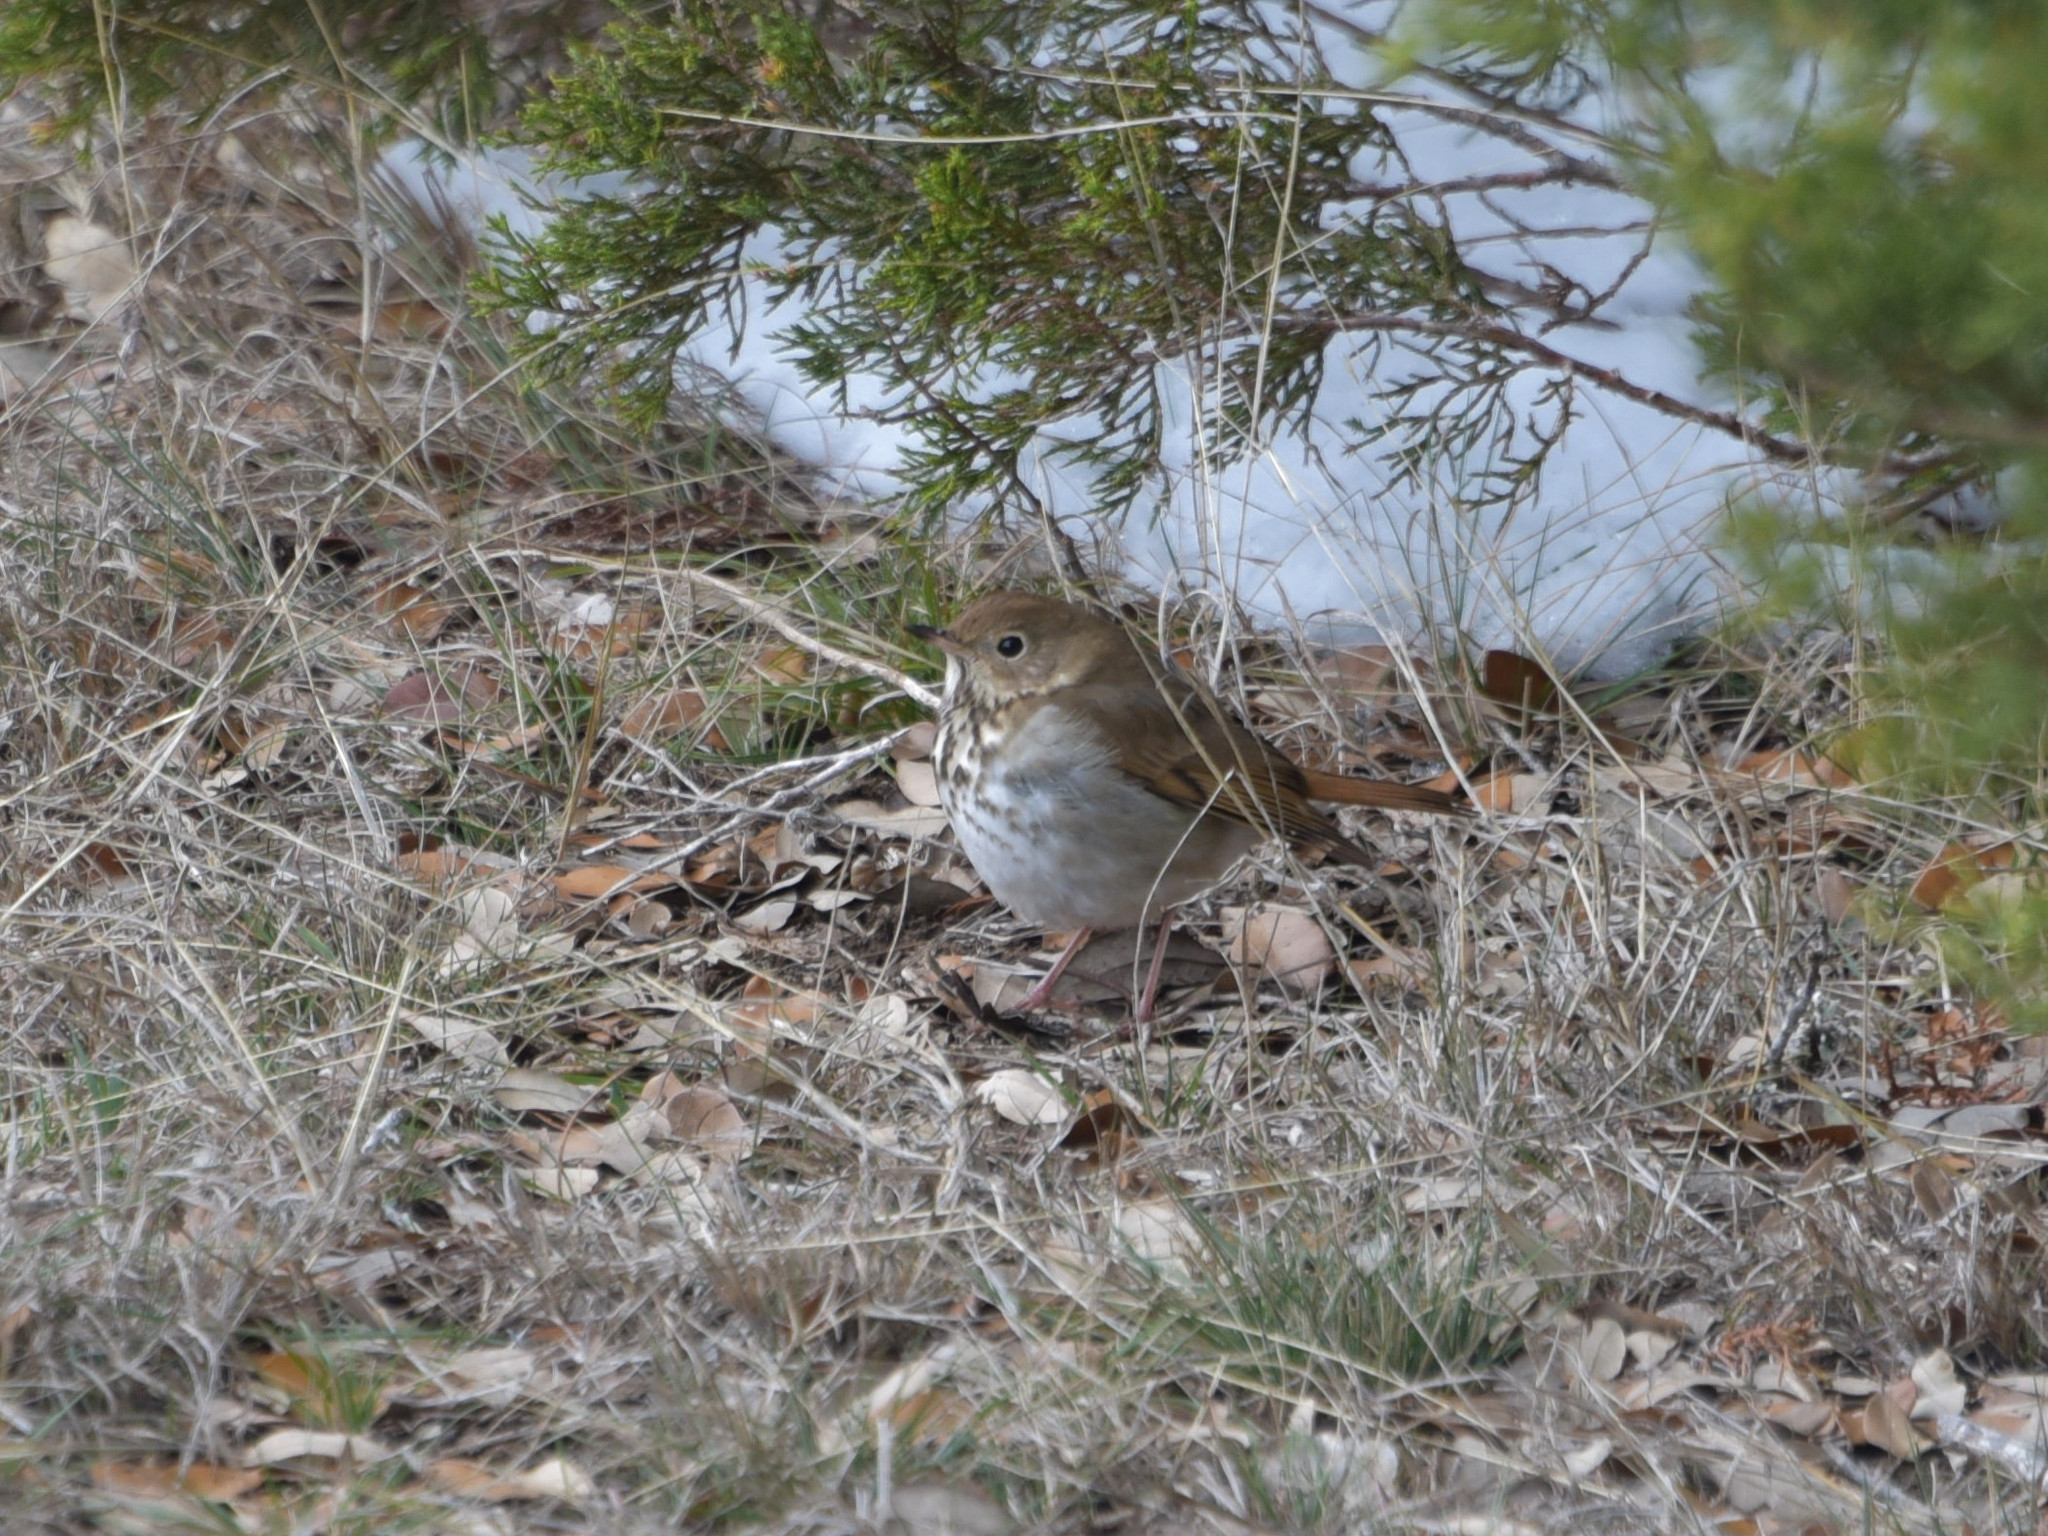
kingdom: Animalia
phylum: Chordata
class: Aves
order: Passeriformes
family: Turdidae
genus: Catharus
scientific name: Catharus guttatus
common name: Hermit thrush
